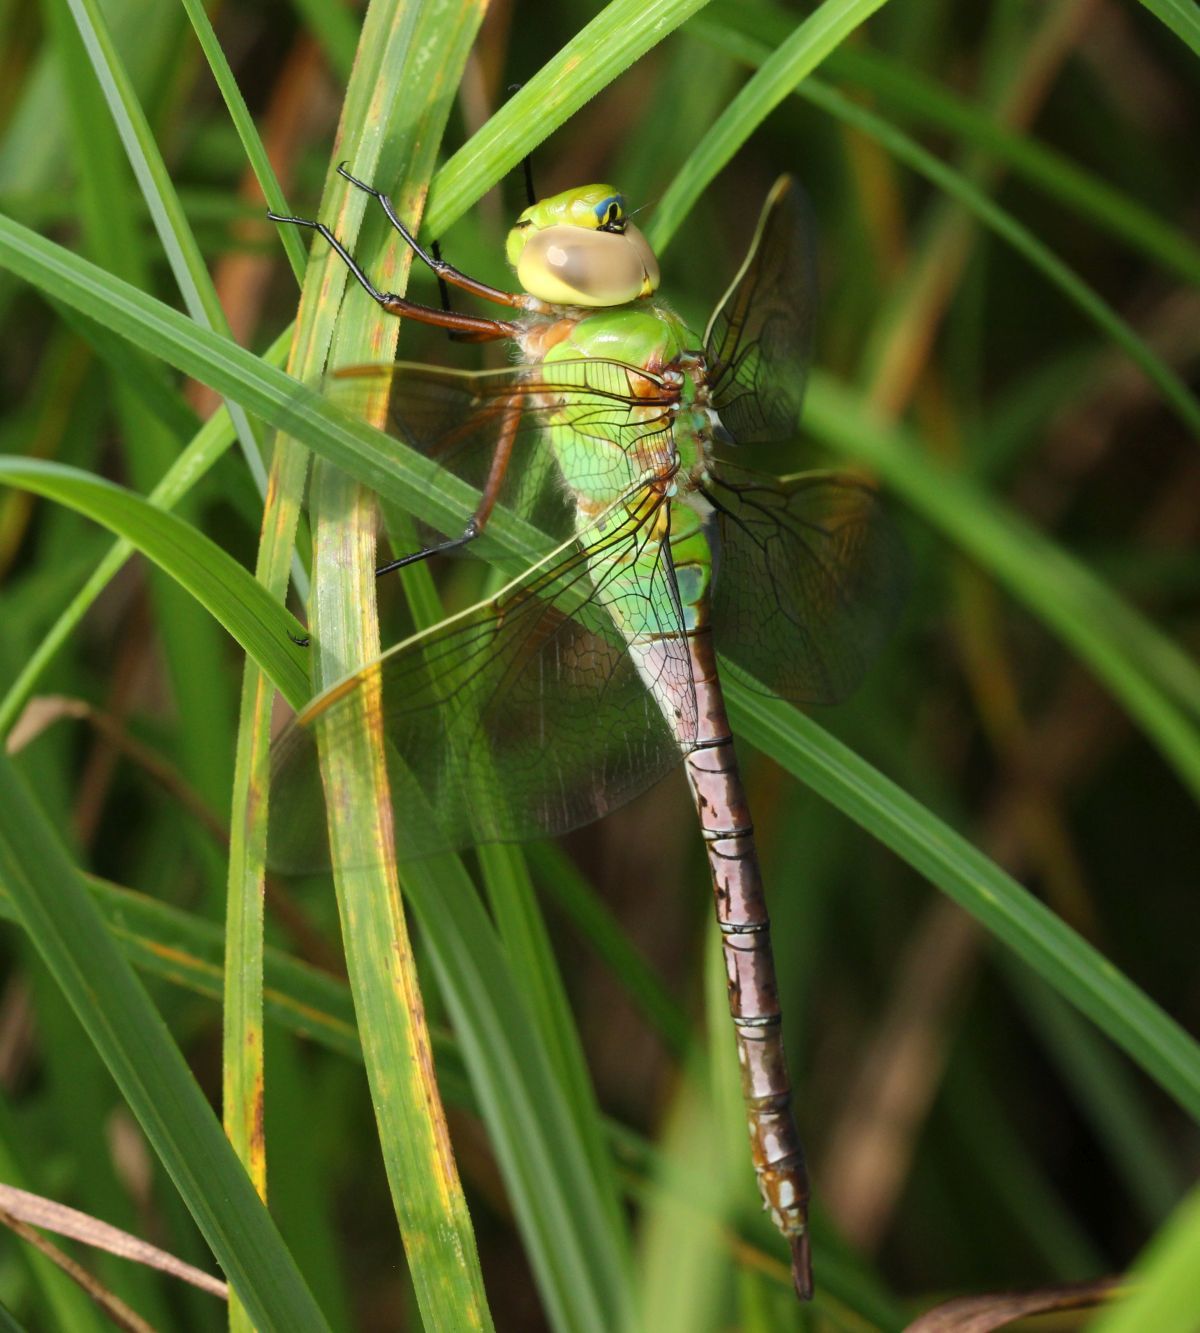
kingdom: Animalia
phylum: Arthropoda
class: Insecta
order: Odonata
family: Aeshnidae
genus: Anax
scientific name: Anax junius
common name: Common green darner
